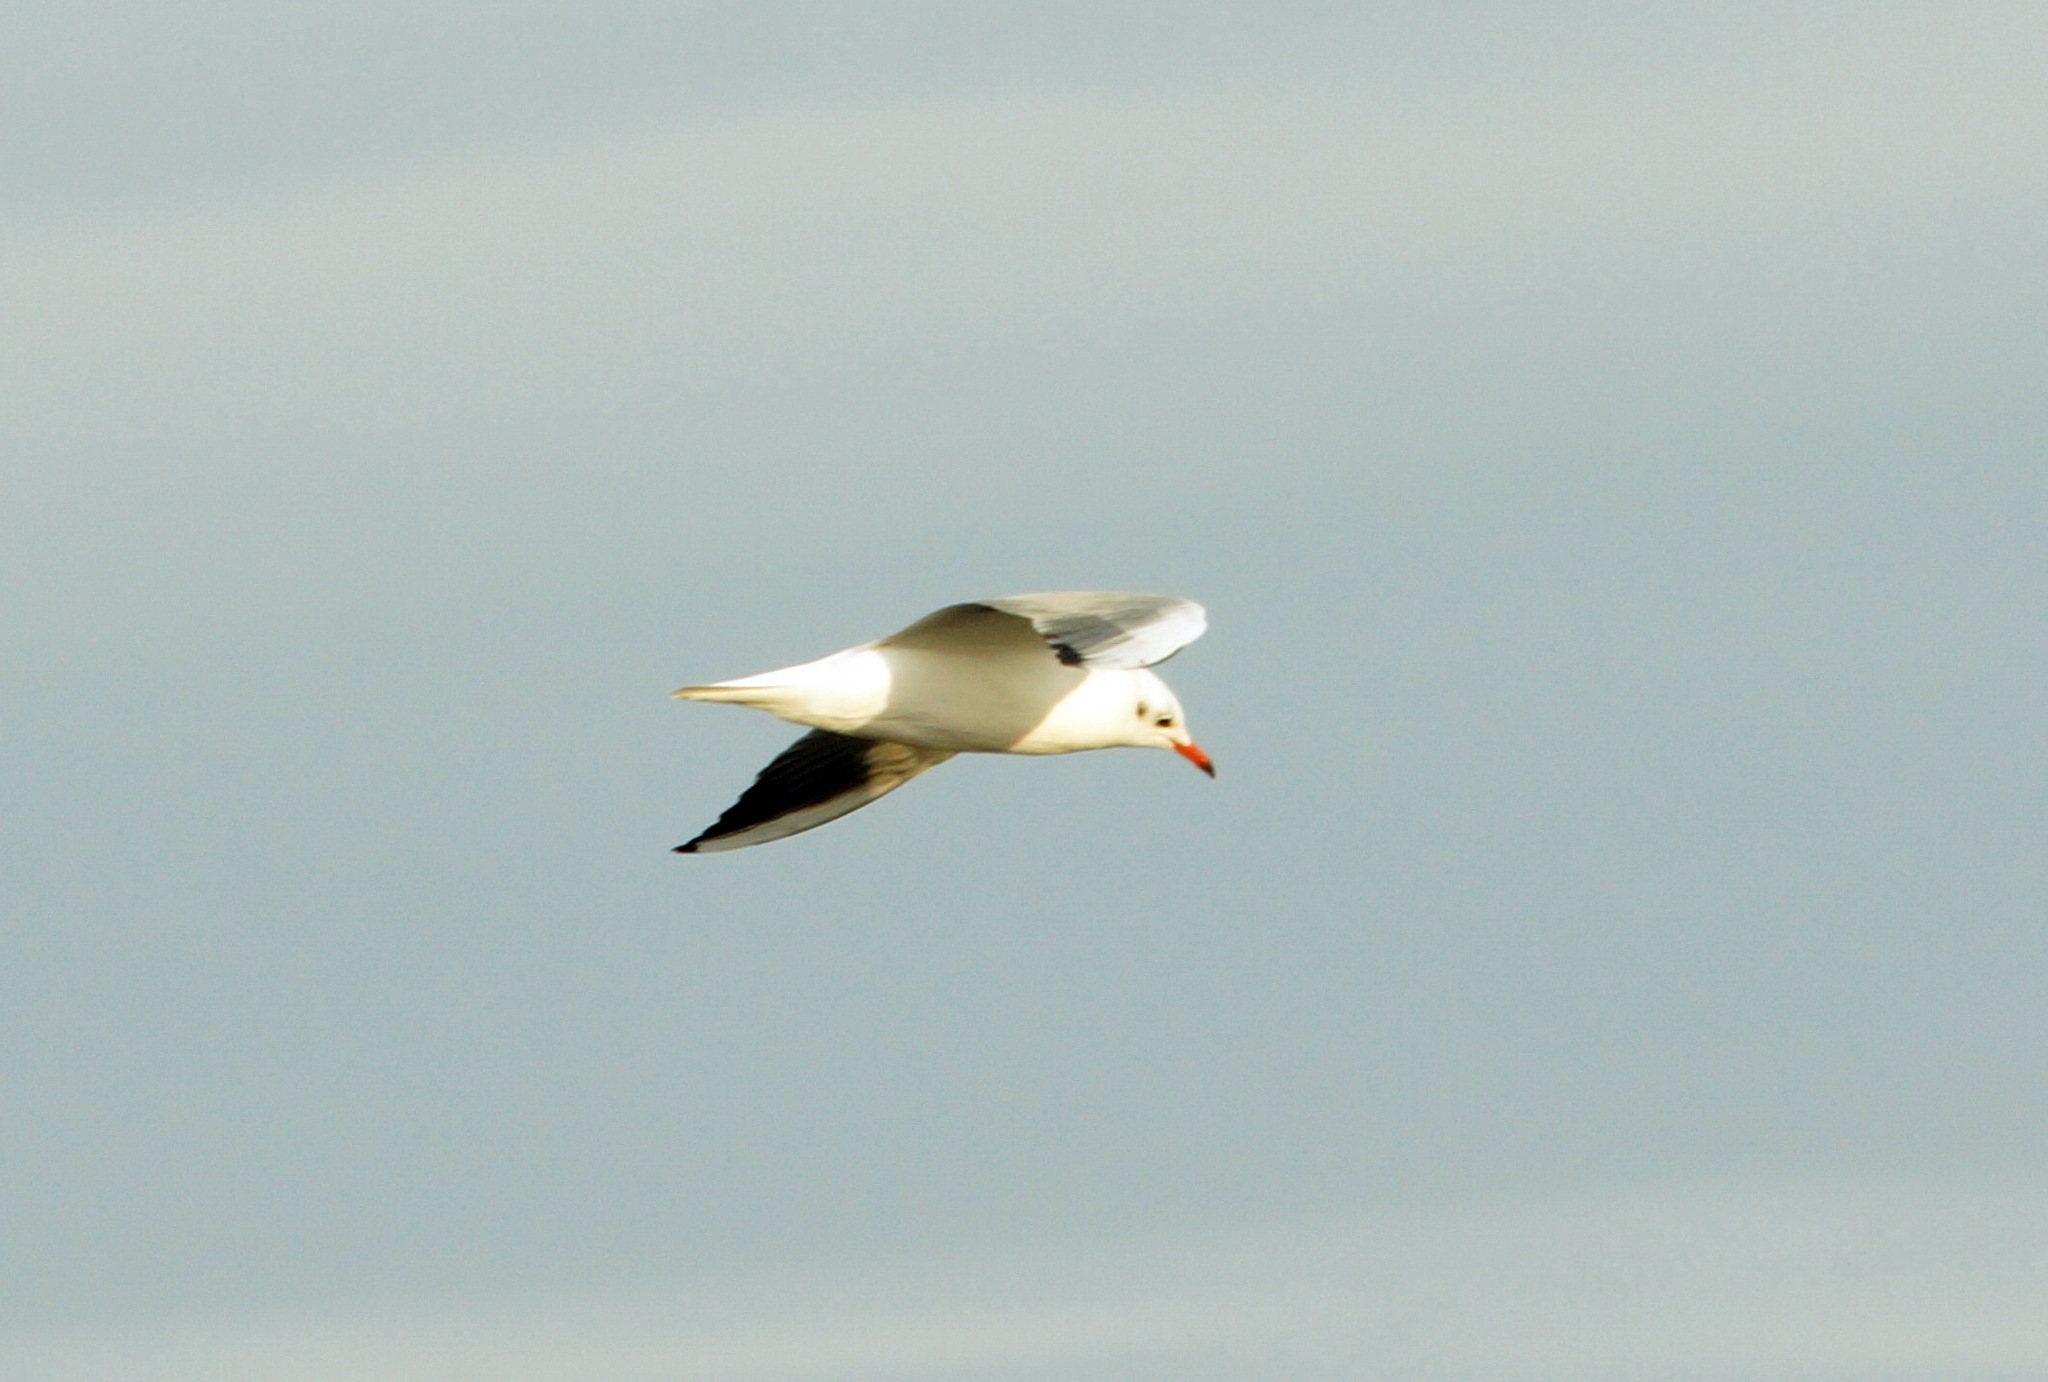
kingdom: Animalia
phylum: Chordata
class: Aves
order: Charadriiformes
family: Laridae
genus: Chroicocephalus
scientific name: Chroicocephalus ridibundus
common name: Black-headed gull
